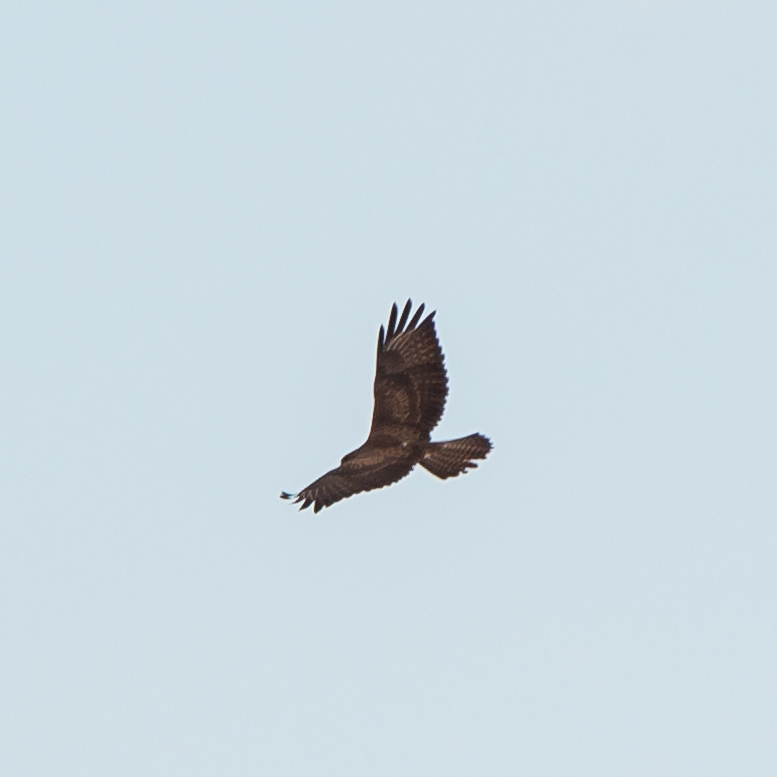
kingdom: Animalia
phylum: Chordata
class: Aves
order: Accipitriformes
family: Accipitridae
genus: Buteo
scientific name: Buteo buteo
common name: Common buzzard
